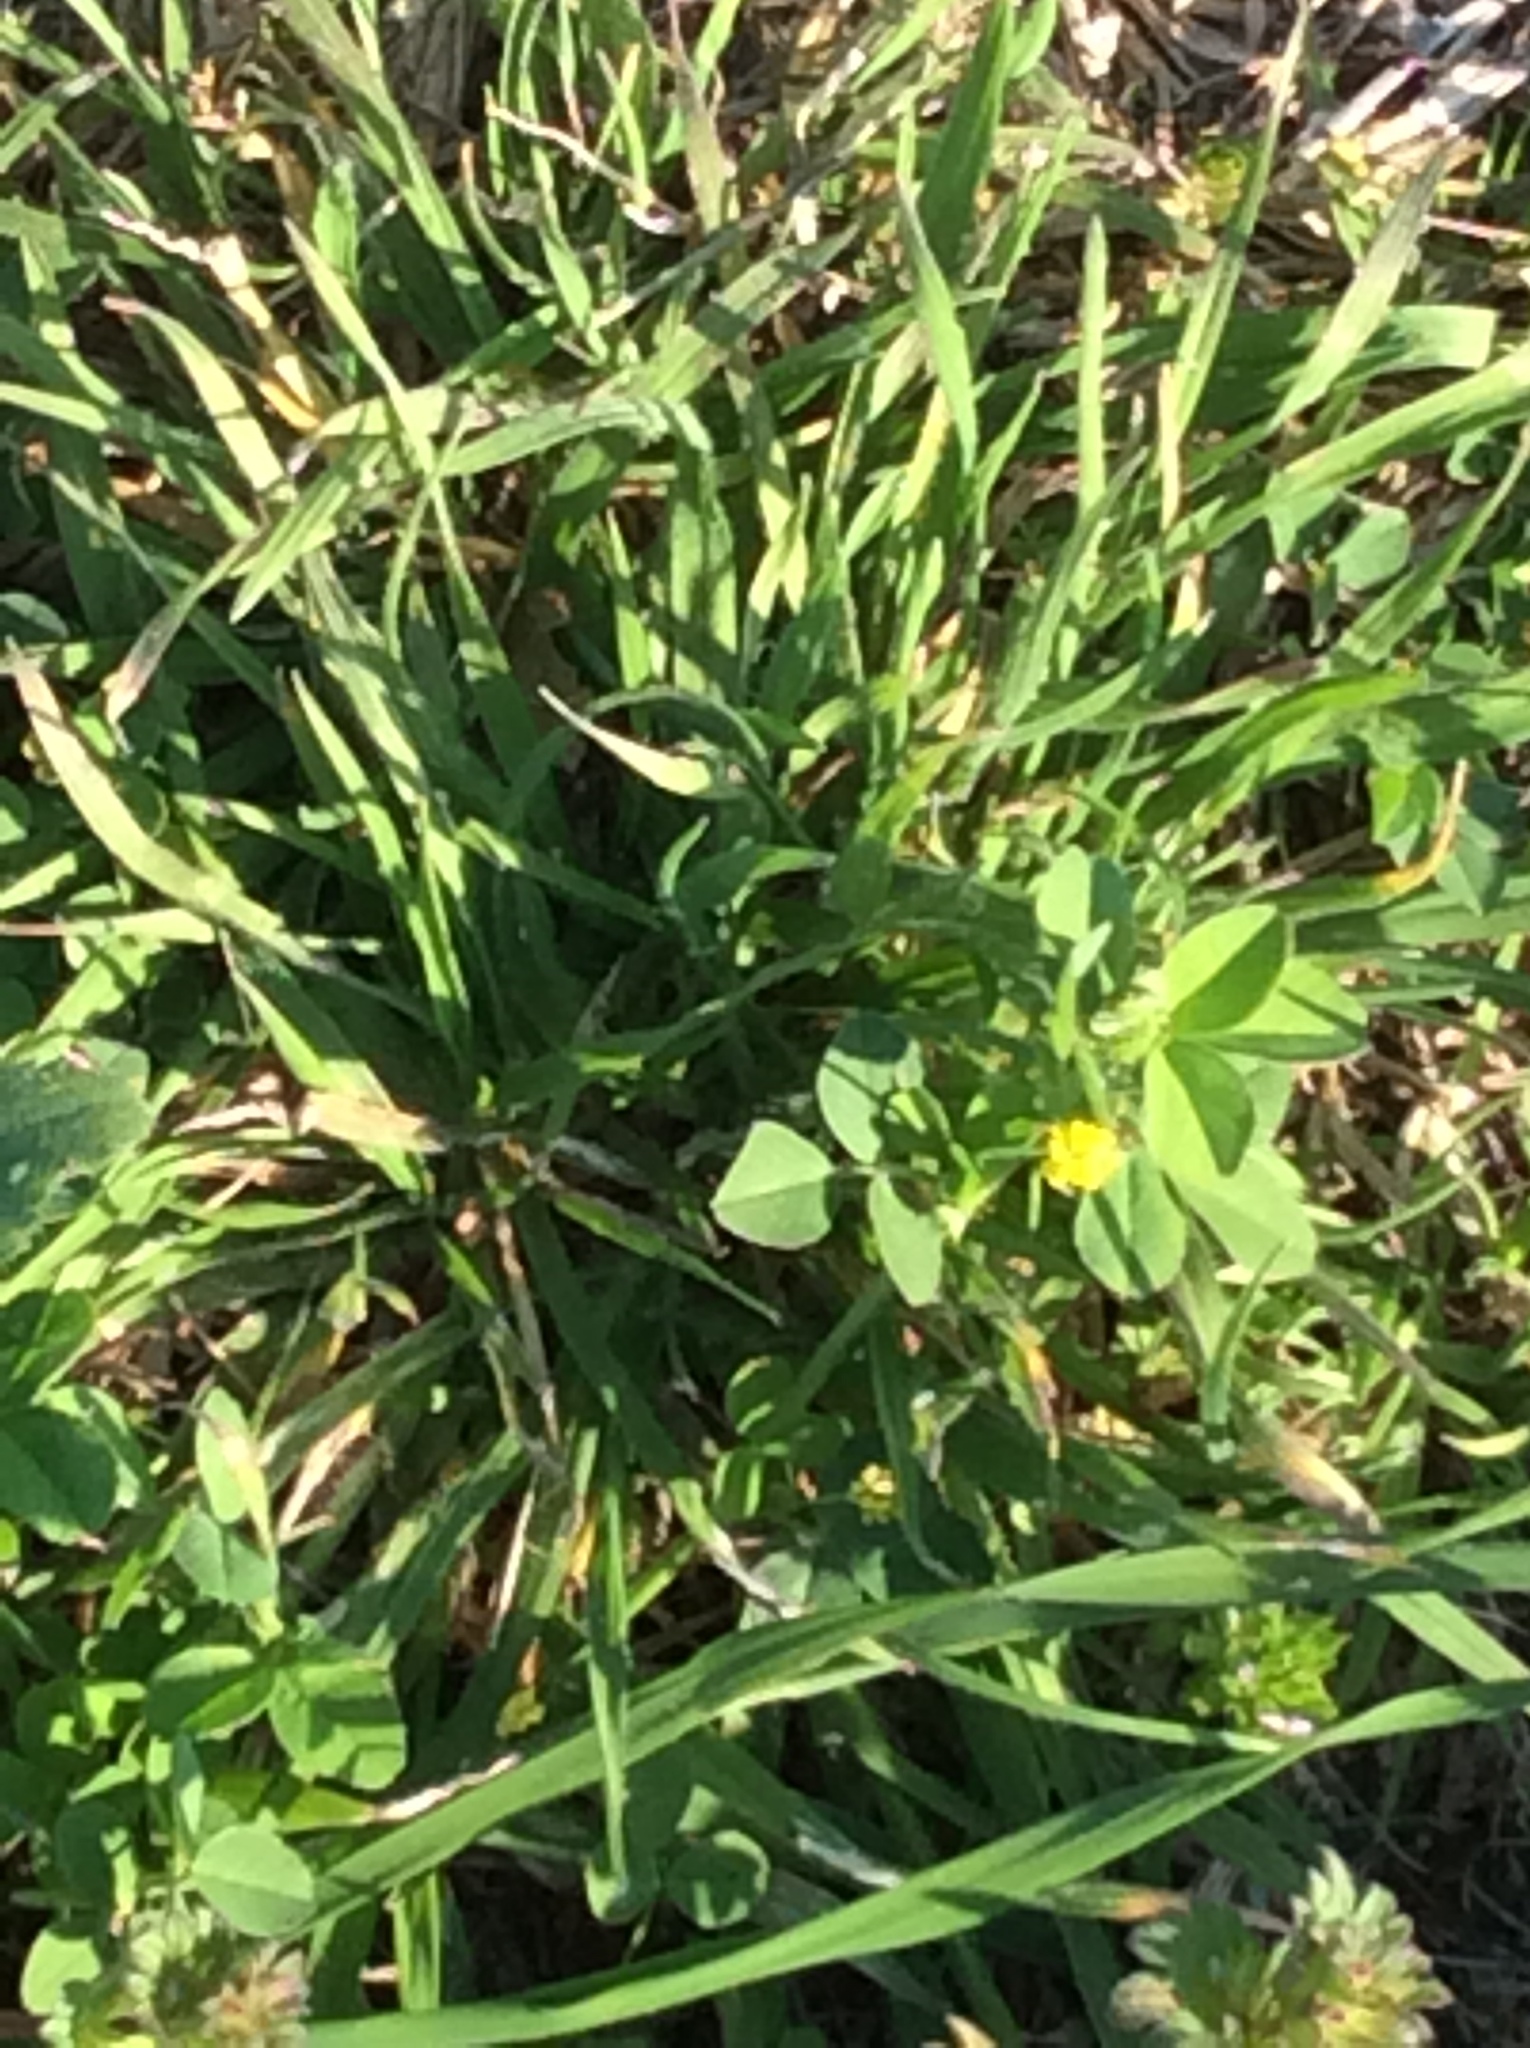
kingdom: Plantae
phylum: Tracheophyta
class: Magnoliopsida
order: Fabales
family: Fabaceae
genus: Medicago
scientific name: Medicago lupulina
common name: Black medick
